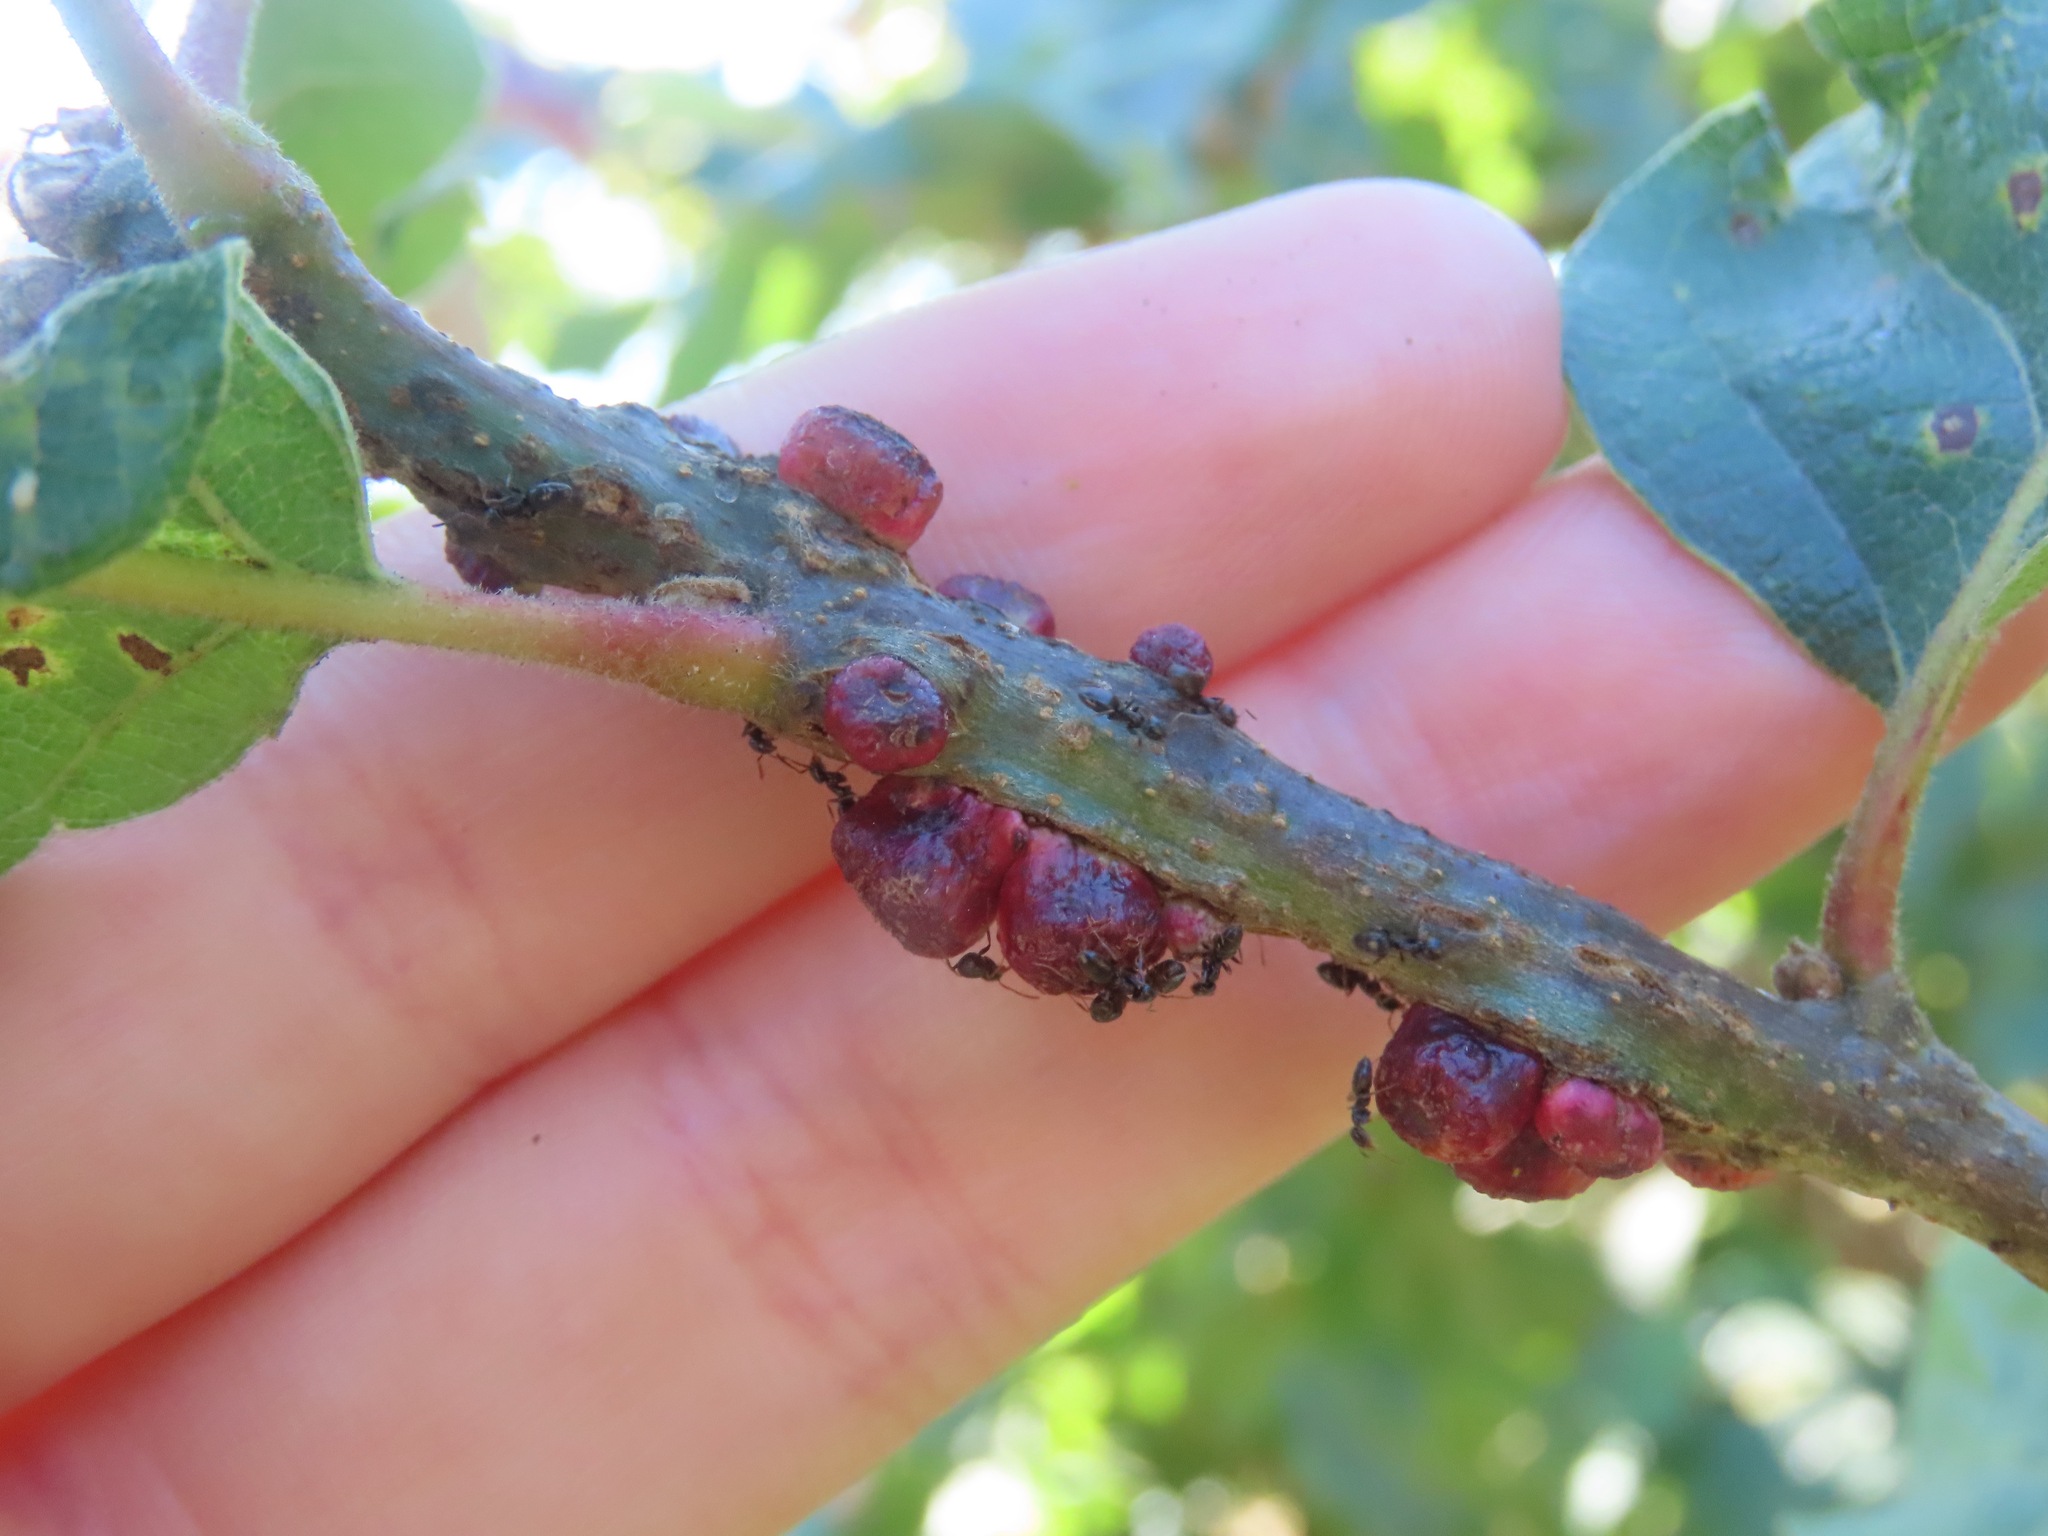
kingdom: Animalia
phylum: Arthropoda
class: Insecta
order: Hymenoptera
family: Cynipidae
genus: Disholcaspis
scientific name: Disholcaspis
